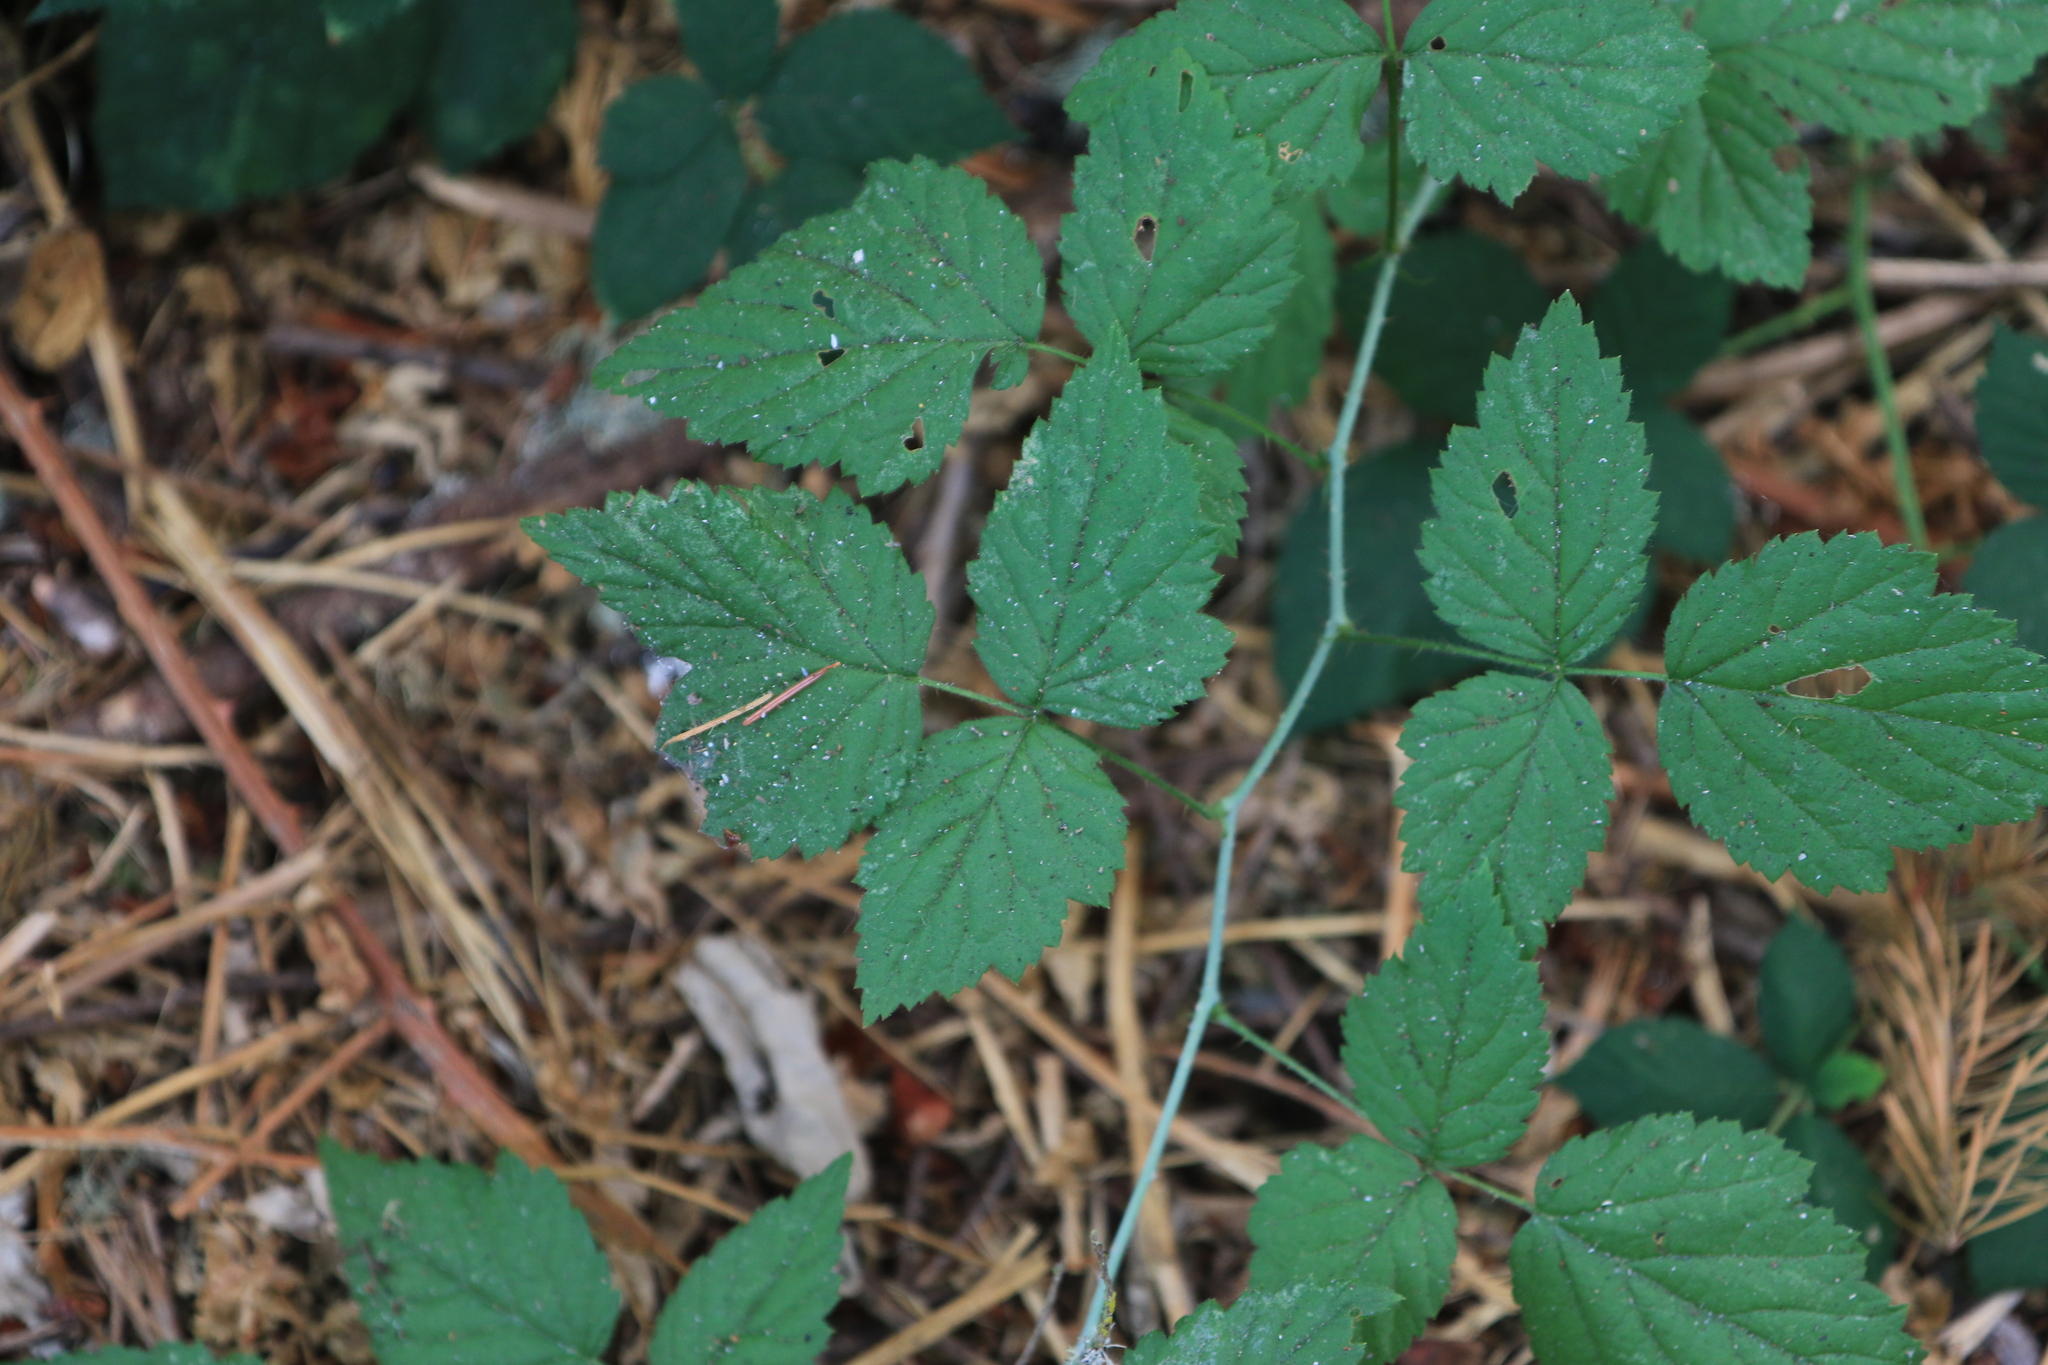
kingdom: Plantae
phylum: Tracheophyta
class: Magnoliopsida
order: Rosales
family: Rosaceae
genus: Rubus
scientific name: Rubus ursinus
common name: Pacific blackberry
